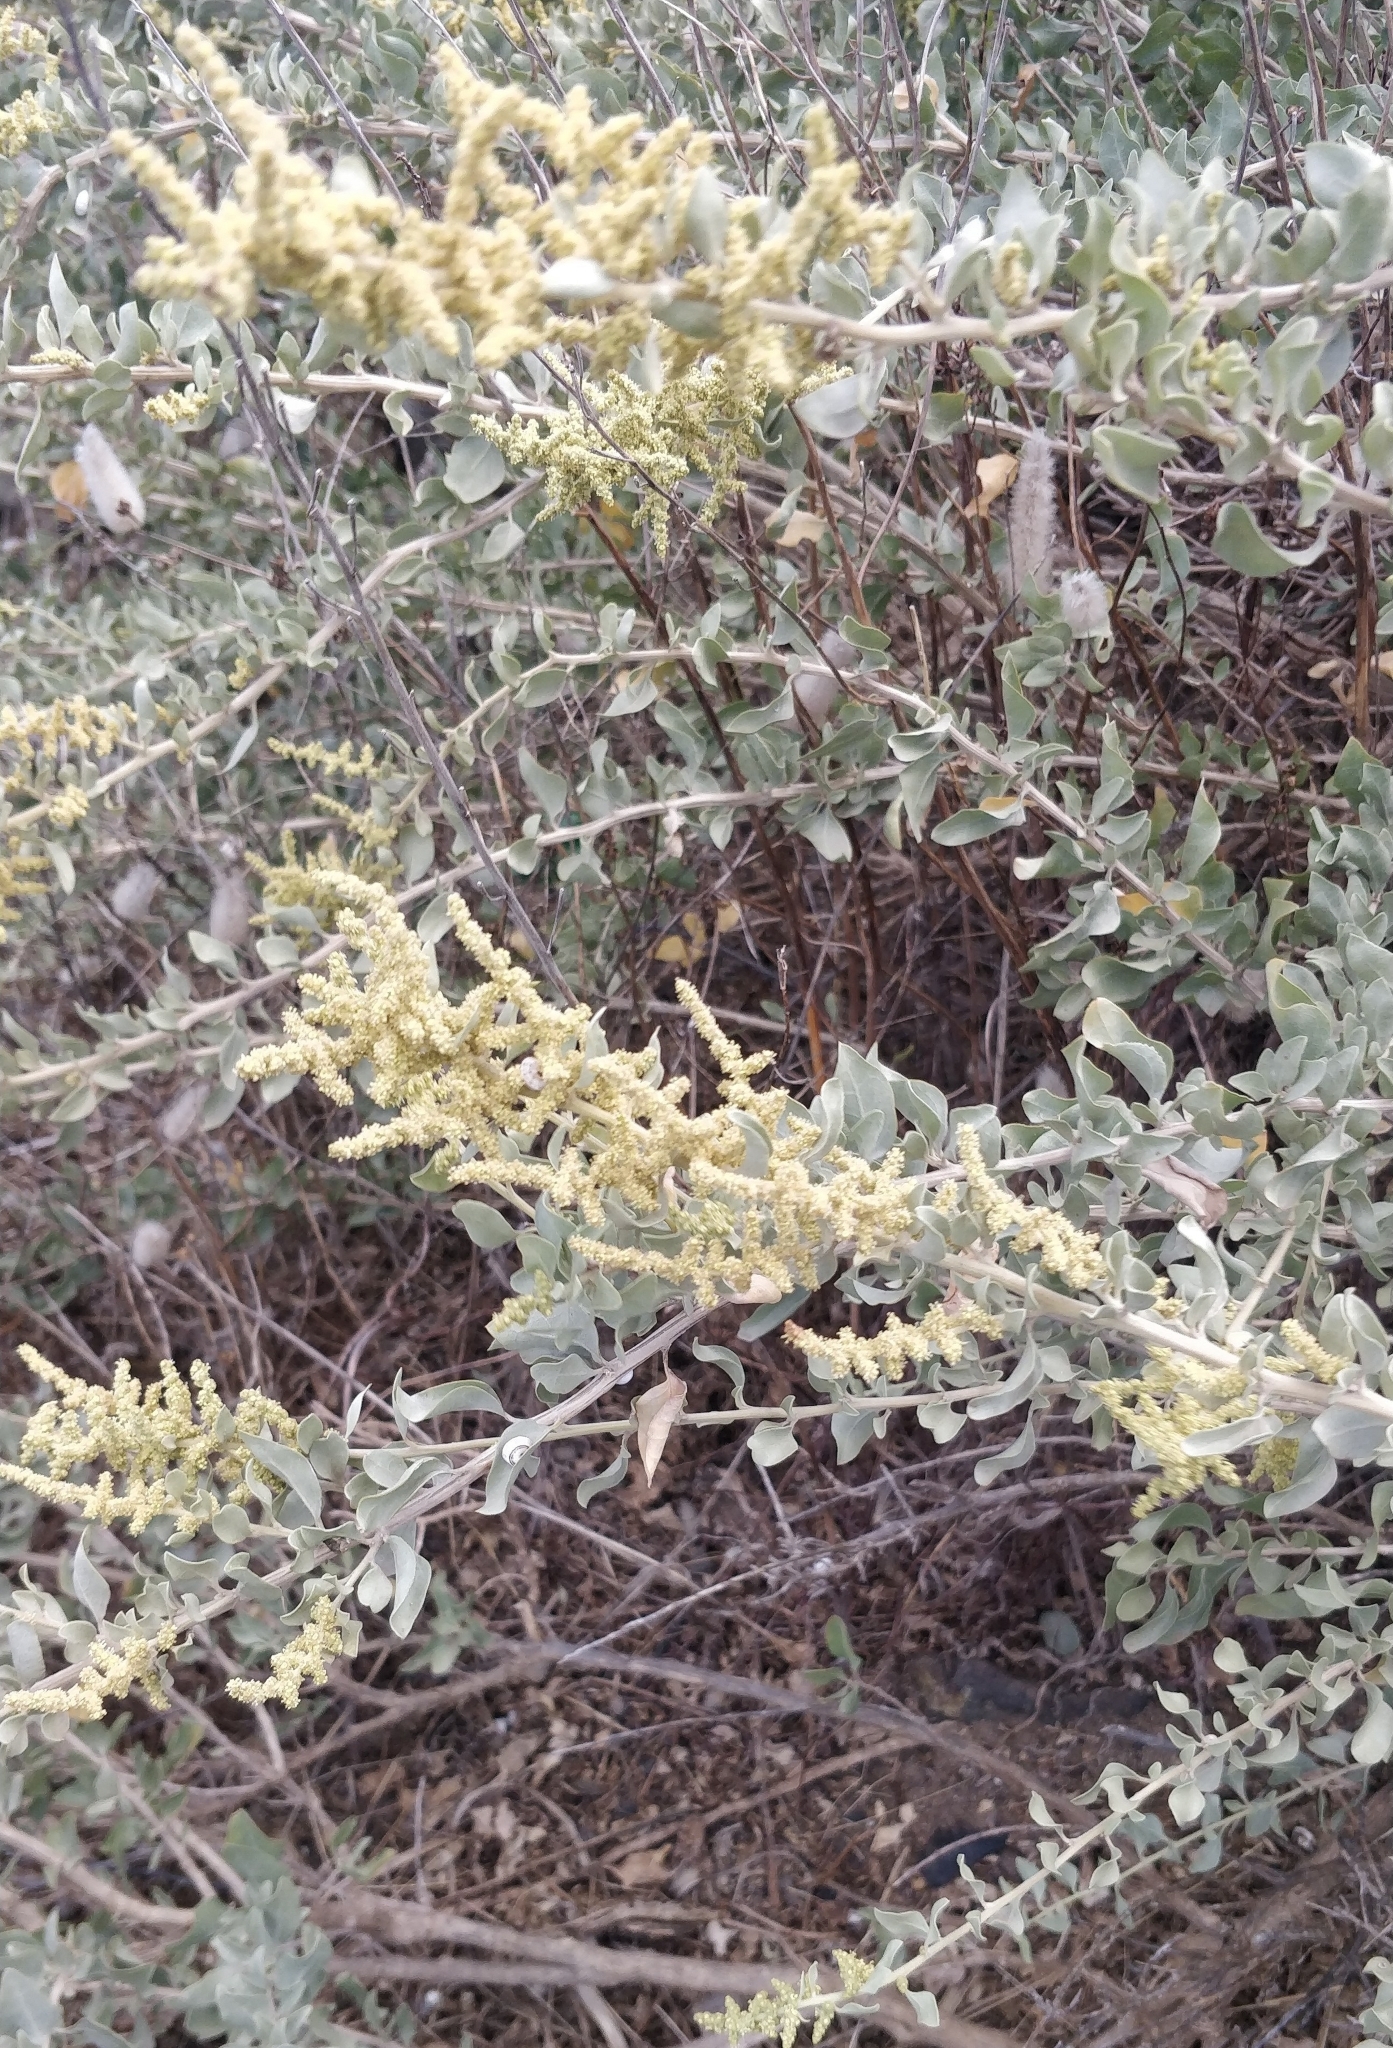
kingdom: Plantae
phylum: Tracheophyta
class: Magnoliopsida
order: Caryophyllales
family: Amaranthaceae
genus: Atriplex
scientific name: Atriplex halimus
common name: Shrubby orache
